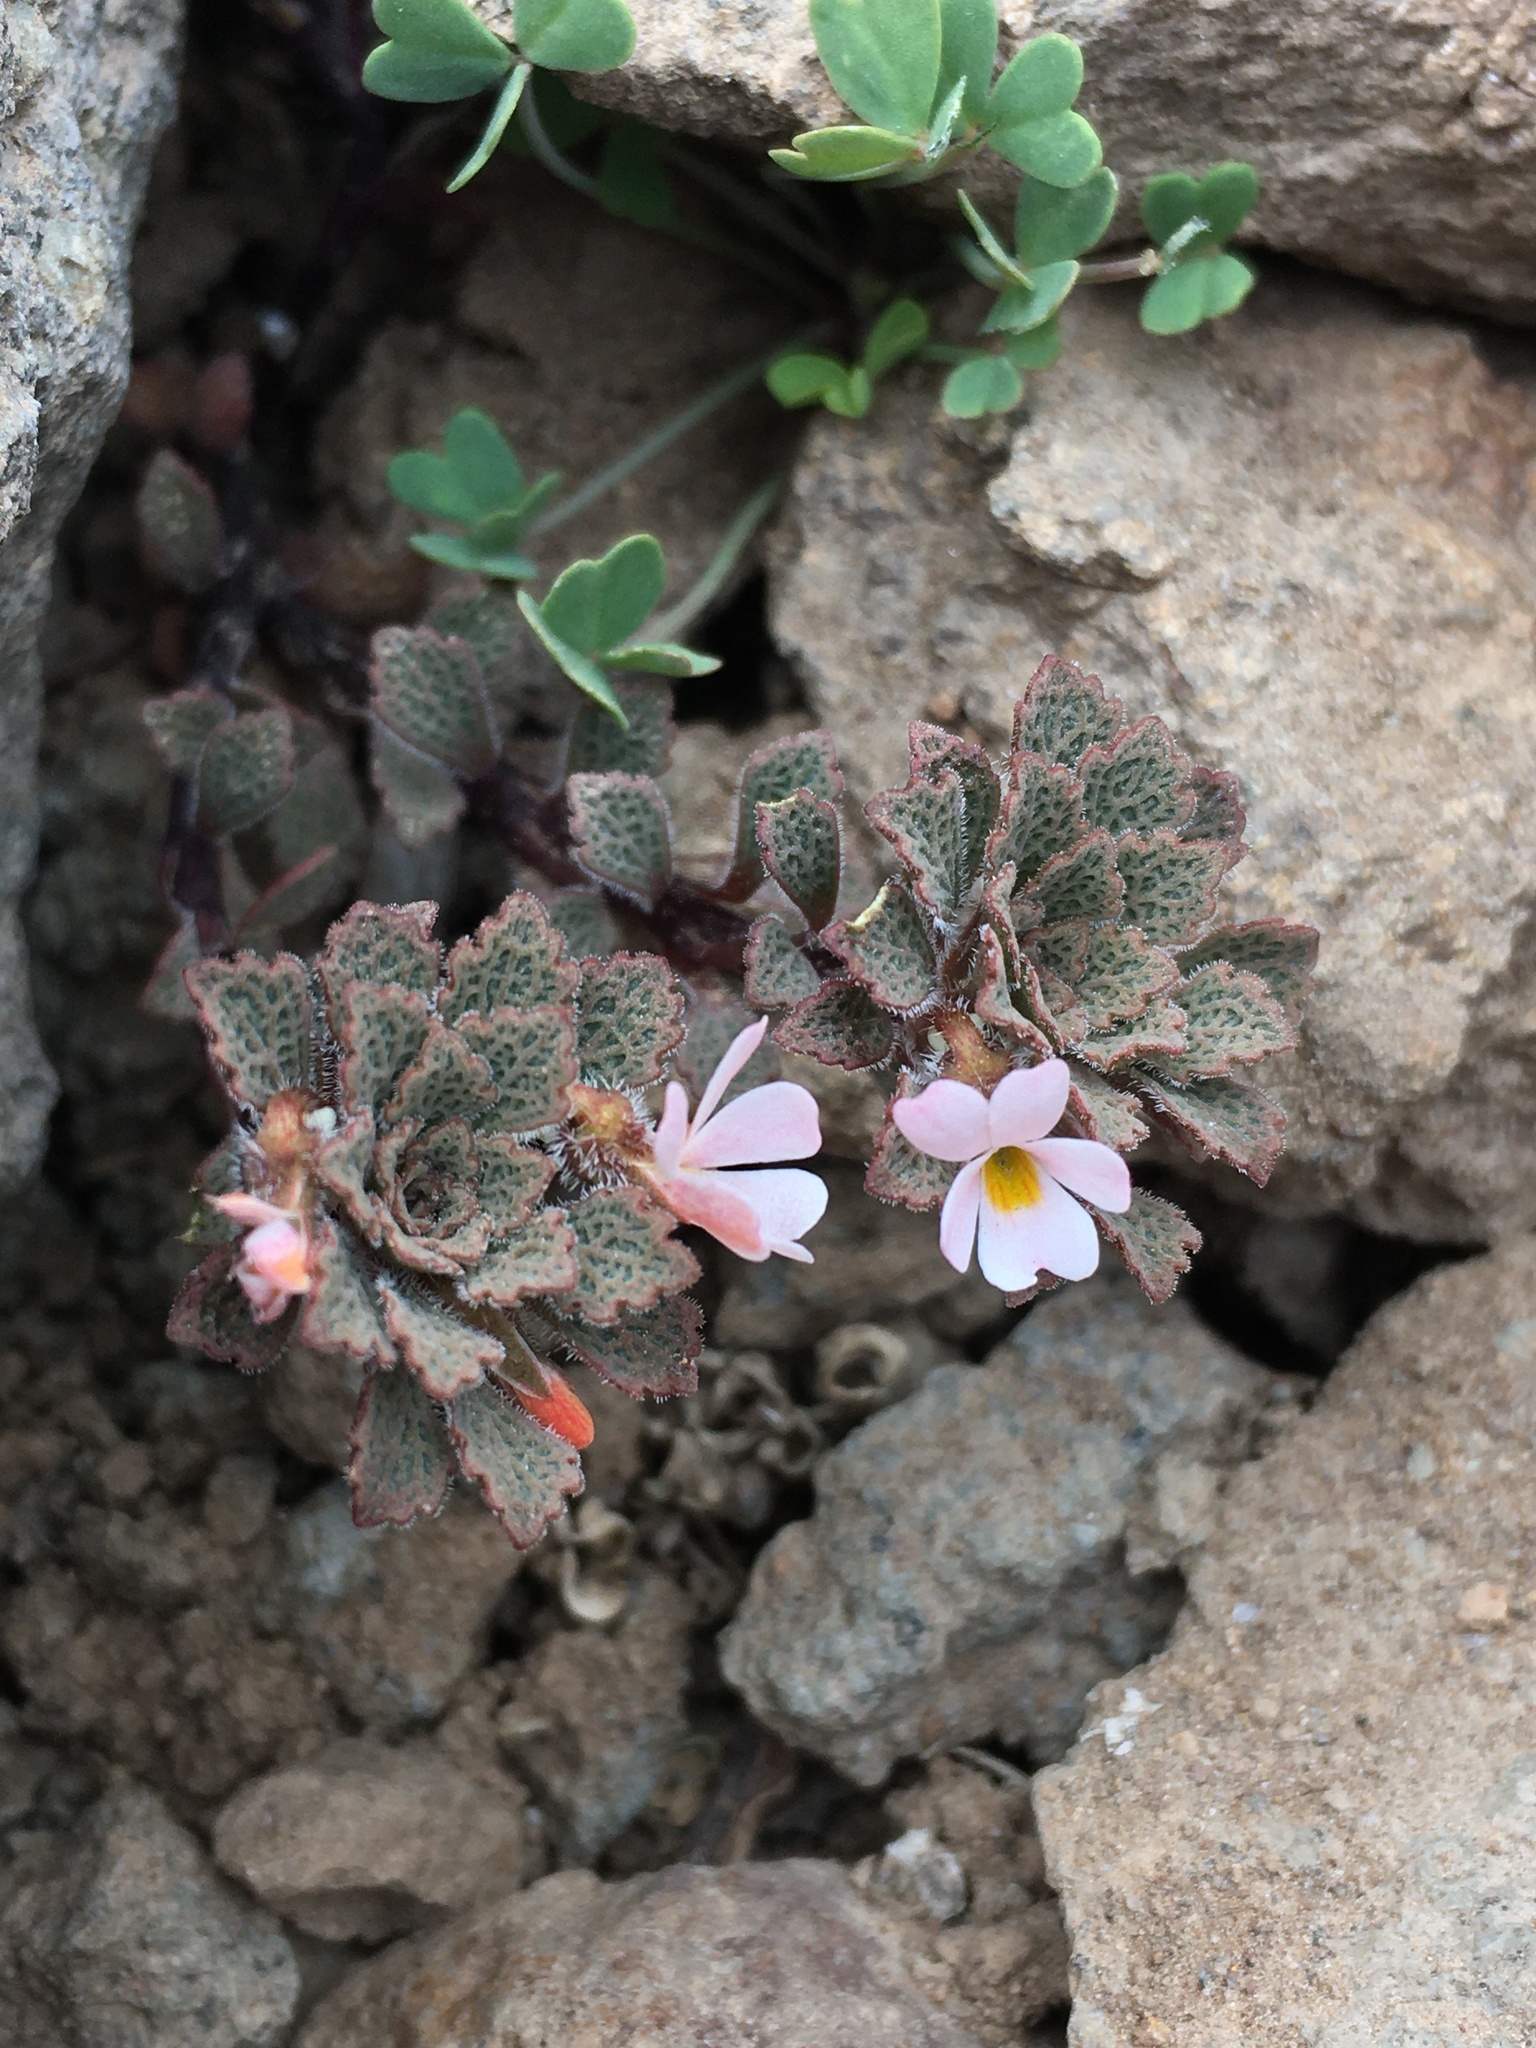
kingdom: Plantae
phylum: Tracheophyta
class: Magnoliopsida
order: Malpighiales
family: Violaceae
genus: Viola
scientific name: Viola
